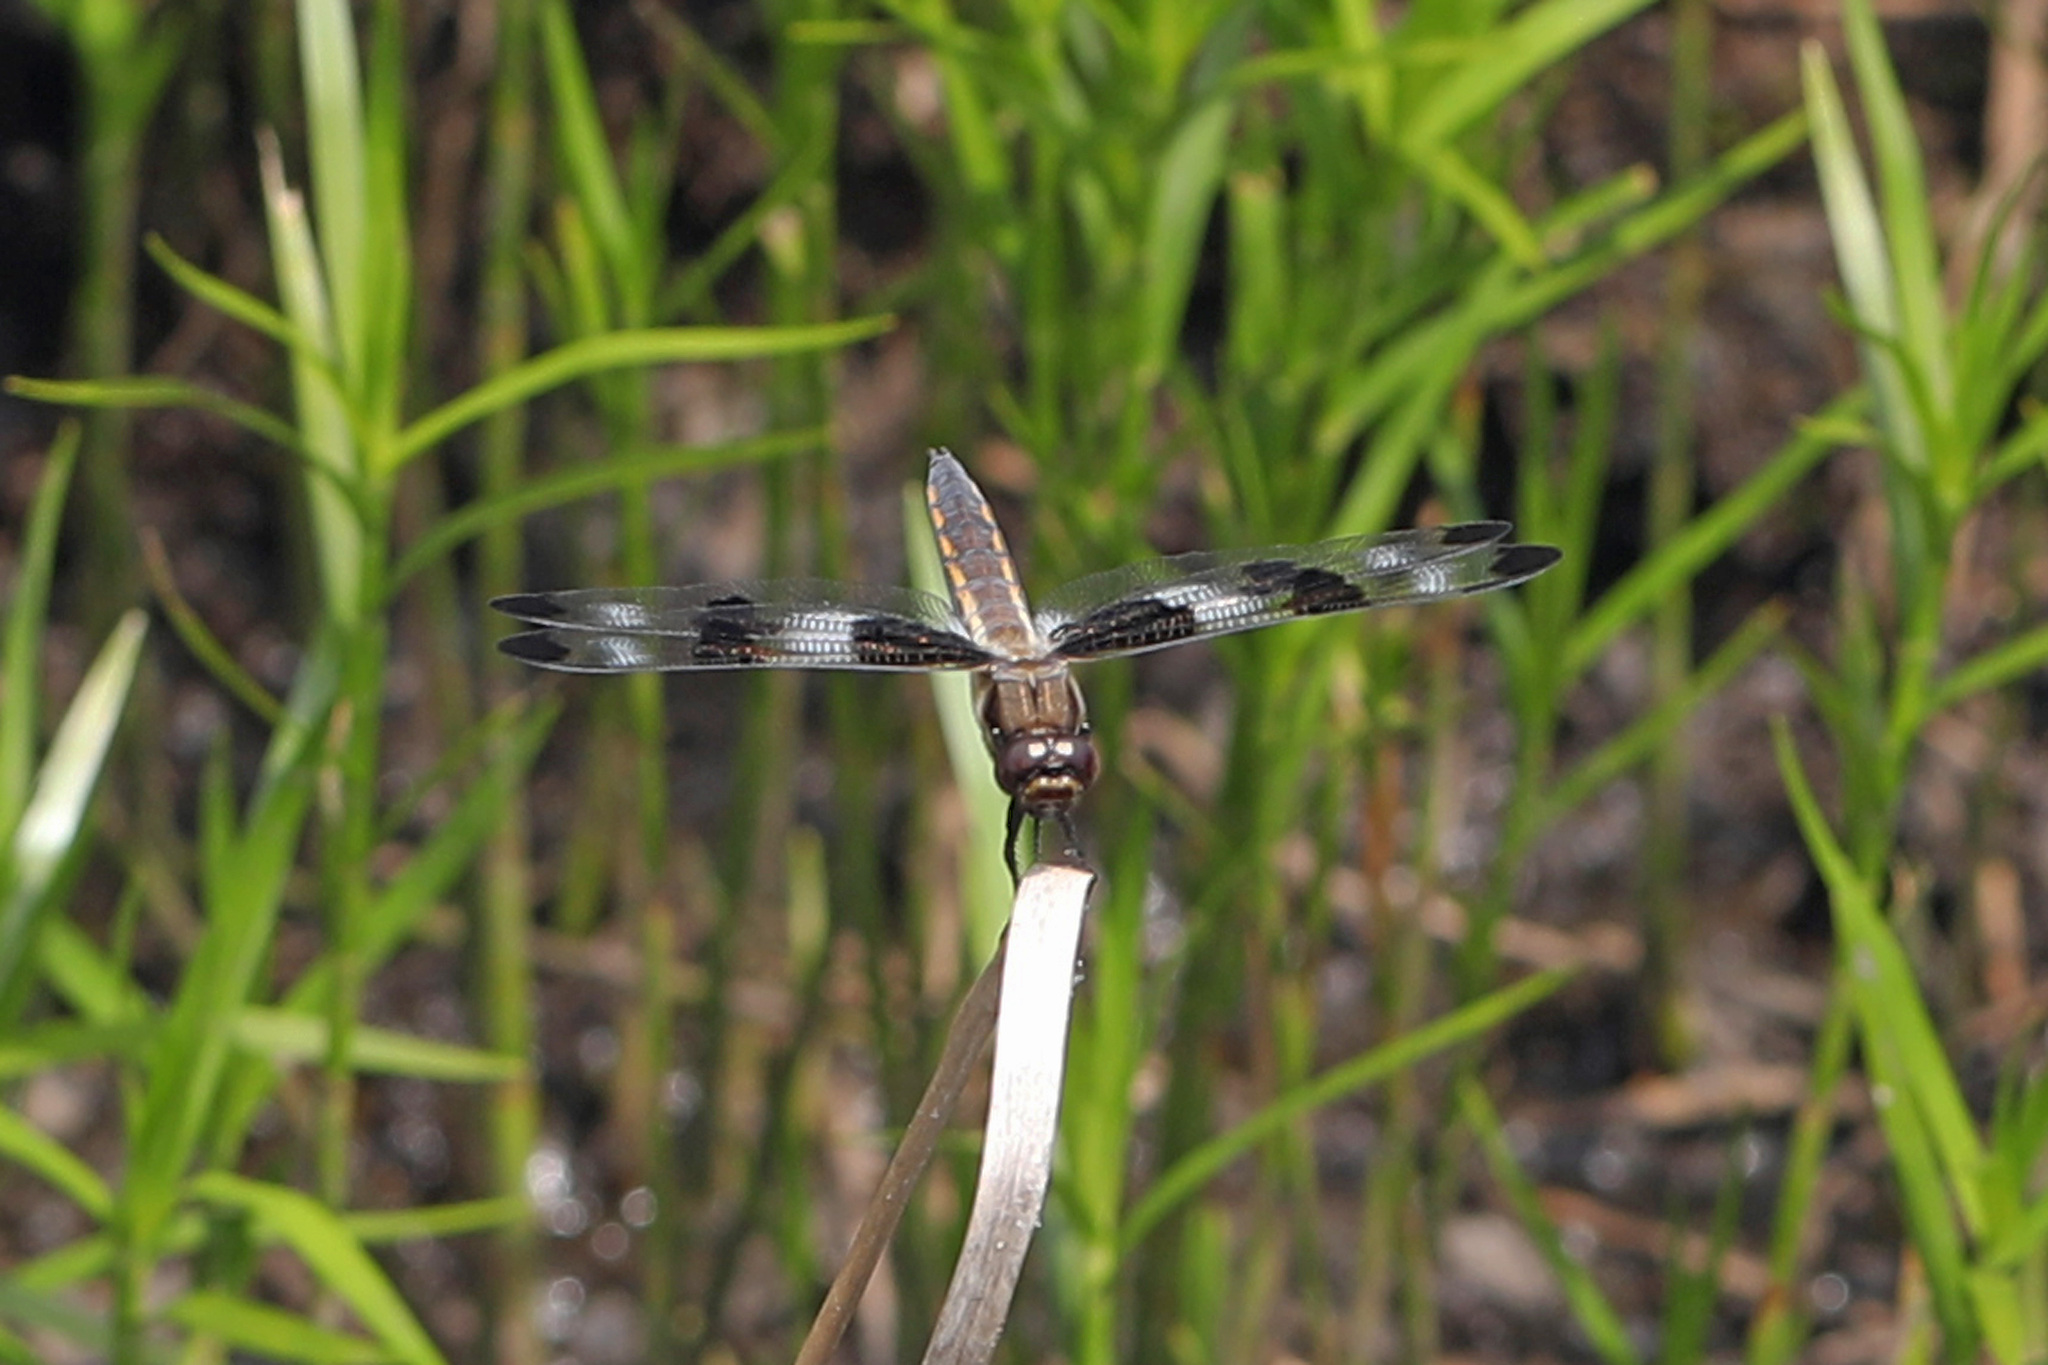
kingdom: Animalia
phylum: Arthropoda
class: Insecta
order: Odonata
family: Libellulidae
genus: Libellula
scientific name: Libellula pulchella
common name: Twelve-spotted skimmer
